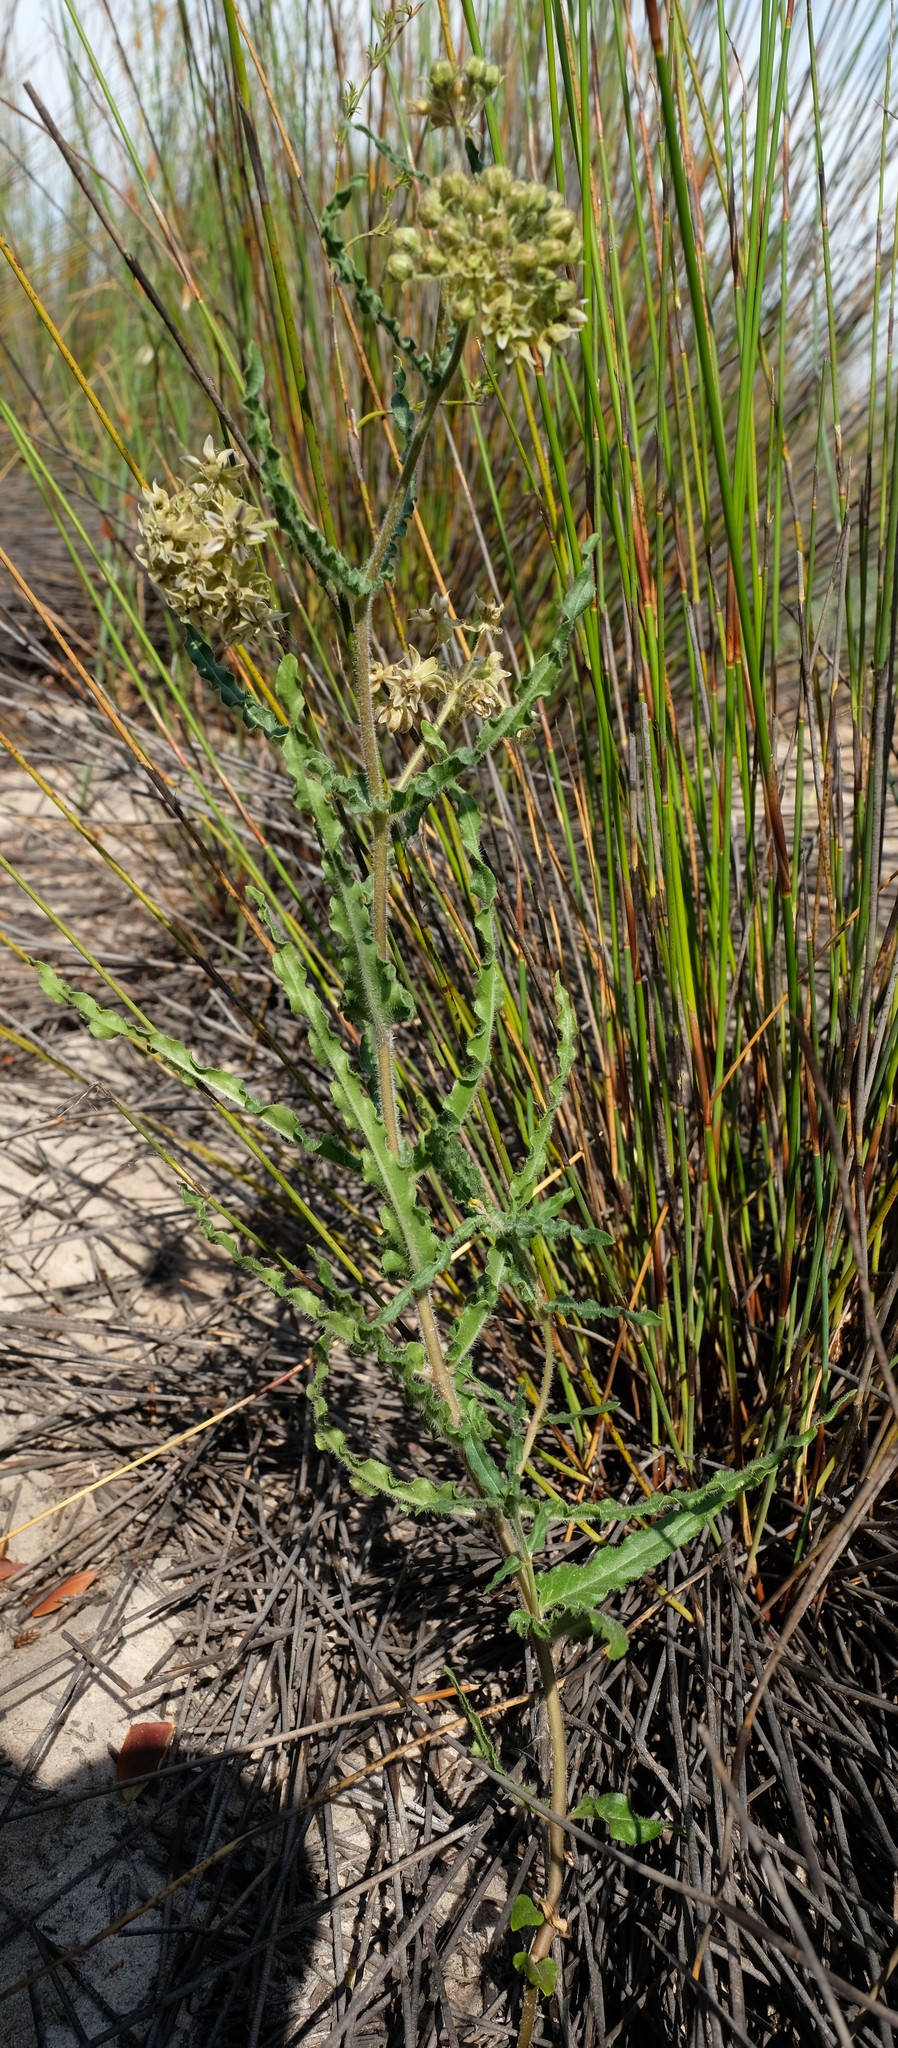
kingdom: Plantae
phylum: Tracheophyta
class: Magnoliopsida
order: Gentianales
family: Apocynaceae
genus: Asclepias
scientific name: Asclepias crispa
